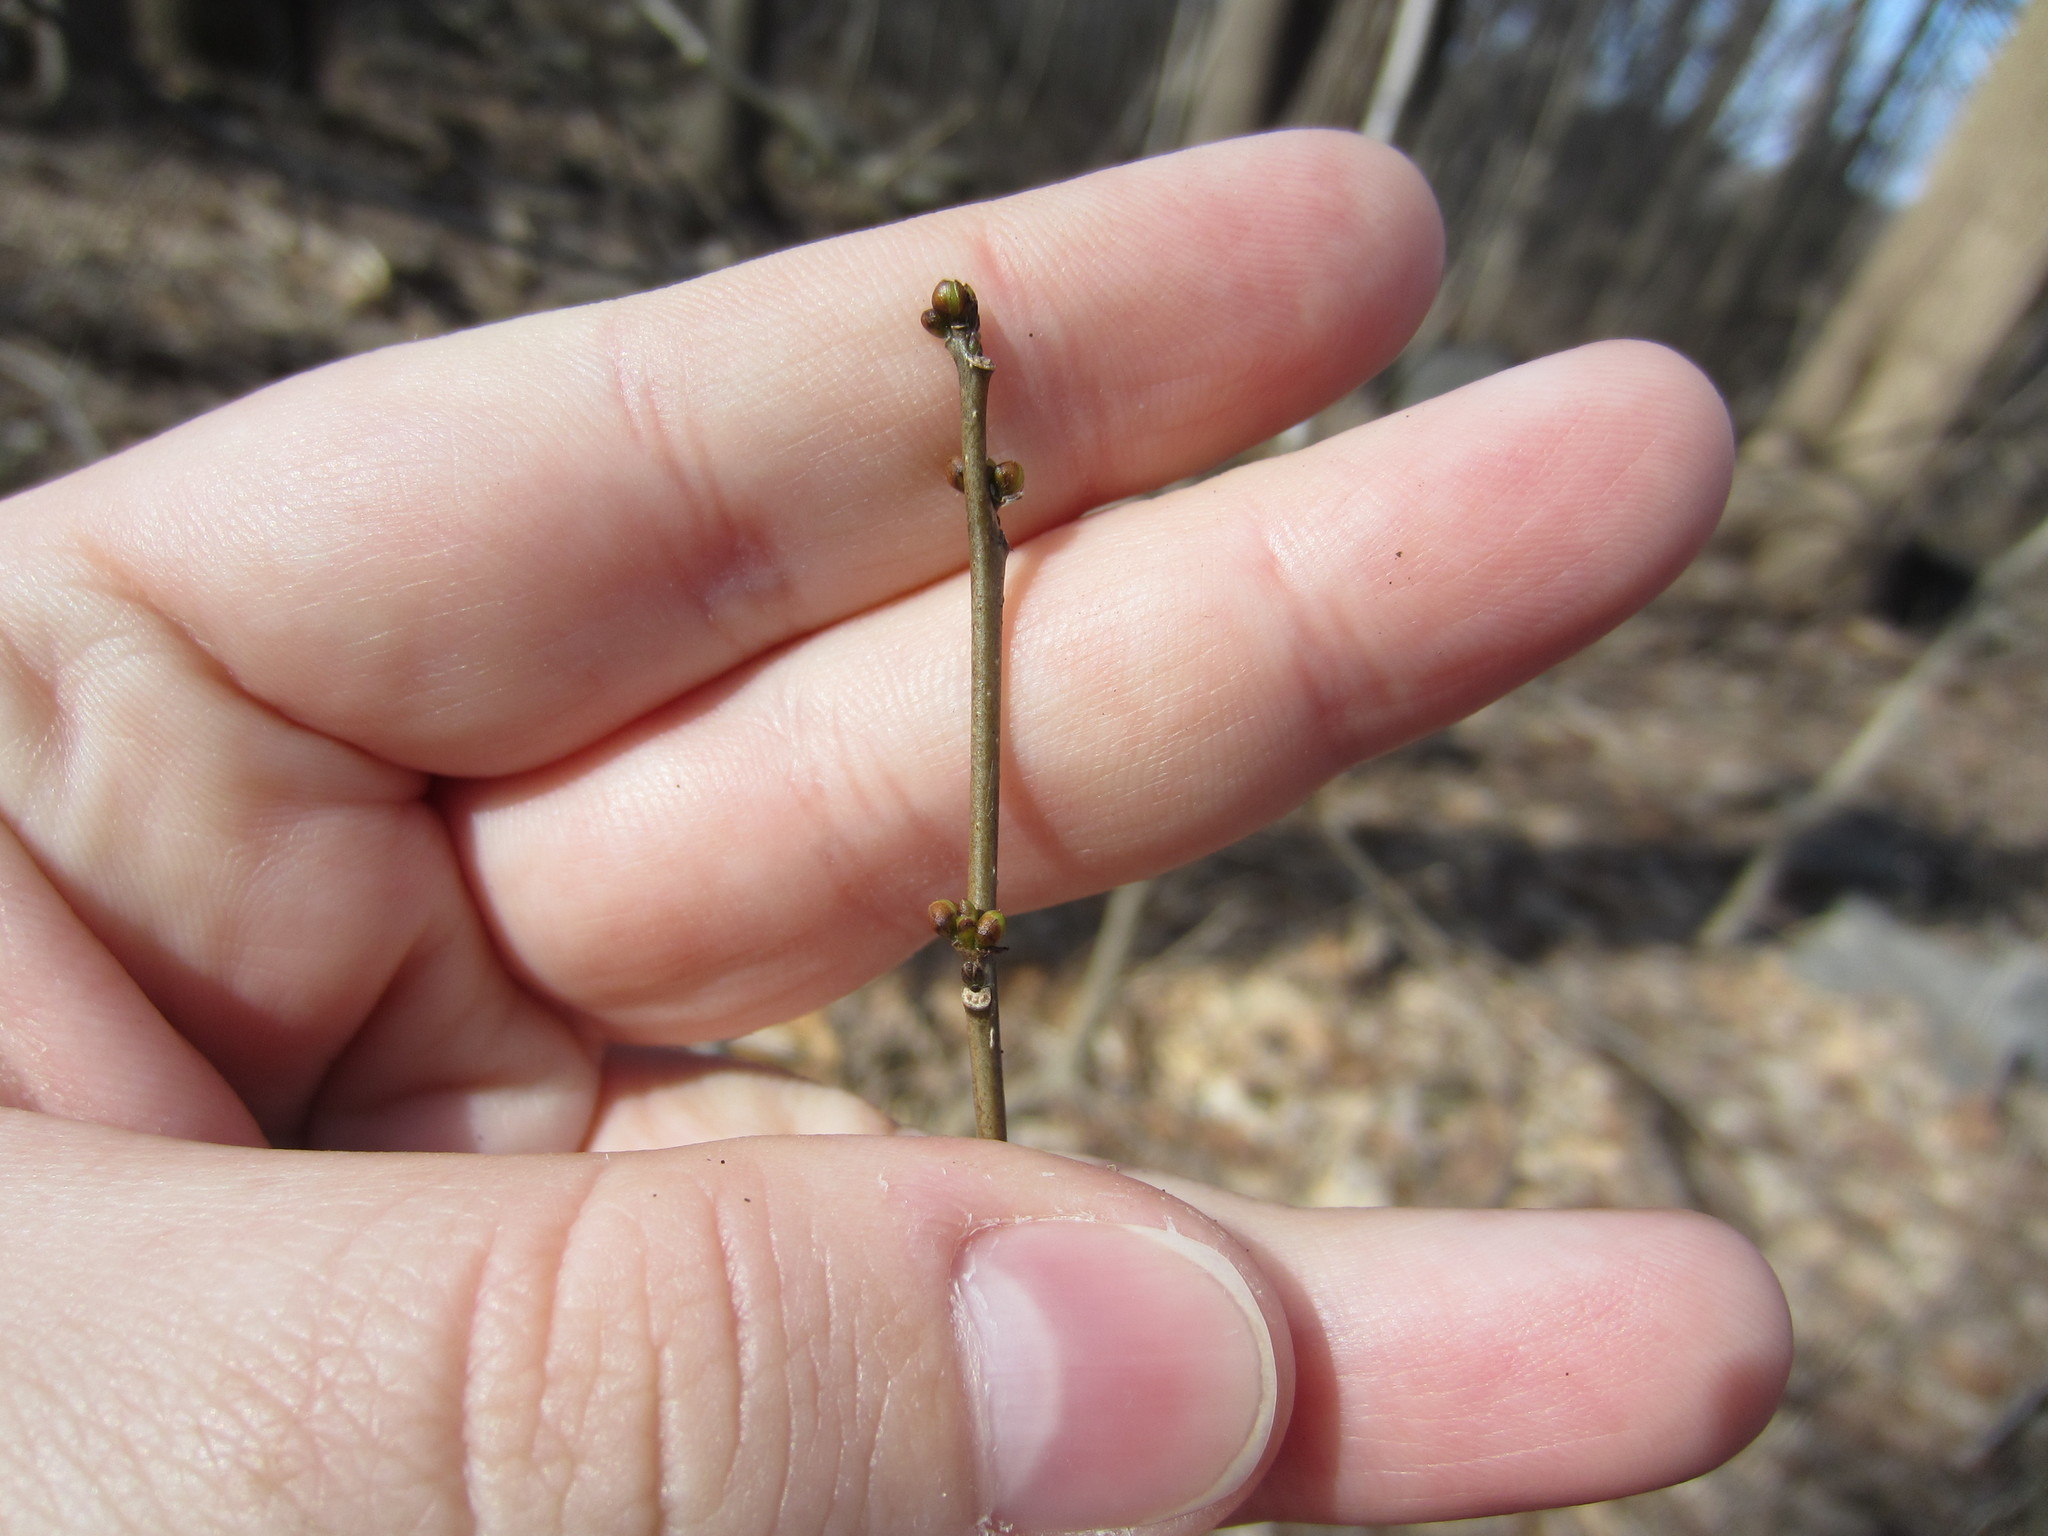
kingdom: Plantae
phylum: Tracheophyta
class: Magnoliopsida
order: Laurales
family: Lauraceae
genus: Lindera
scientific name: Lindera benzoin
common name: Spicebush
